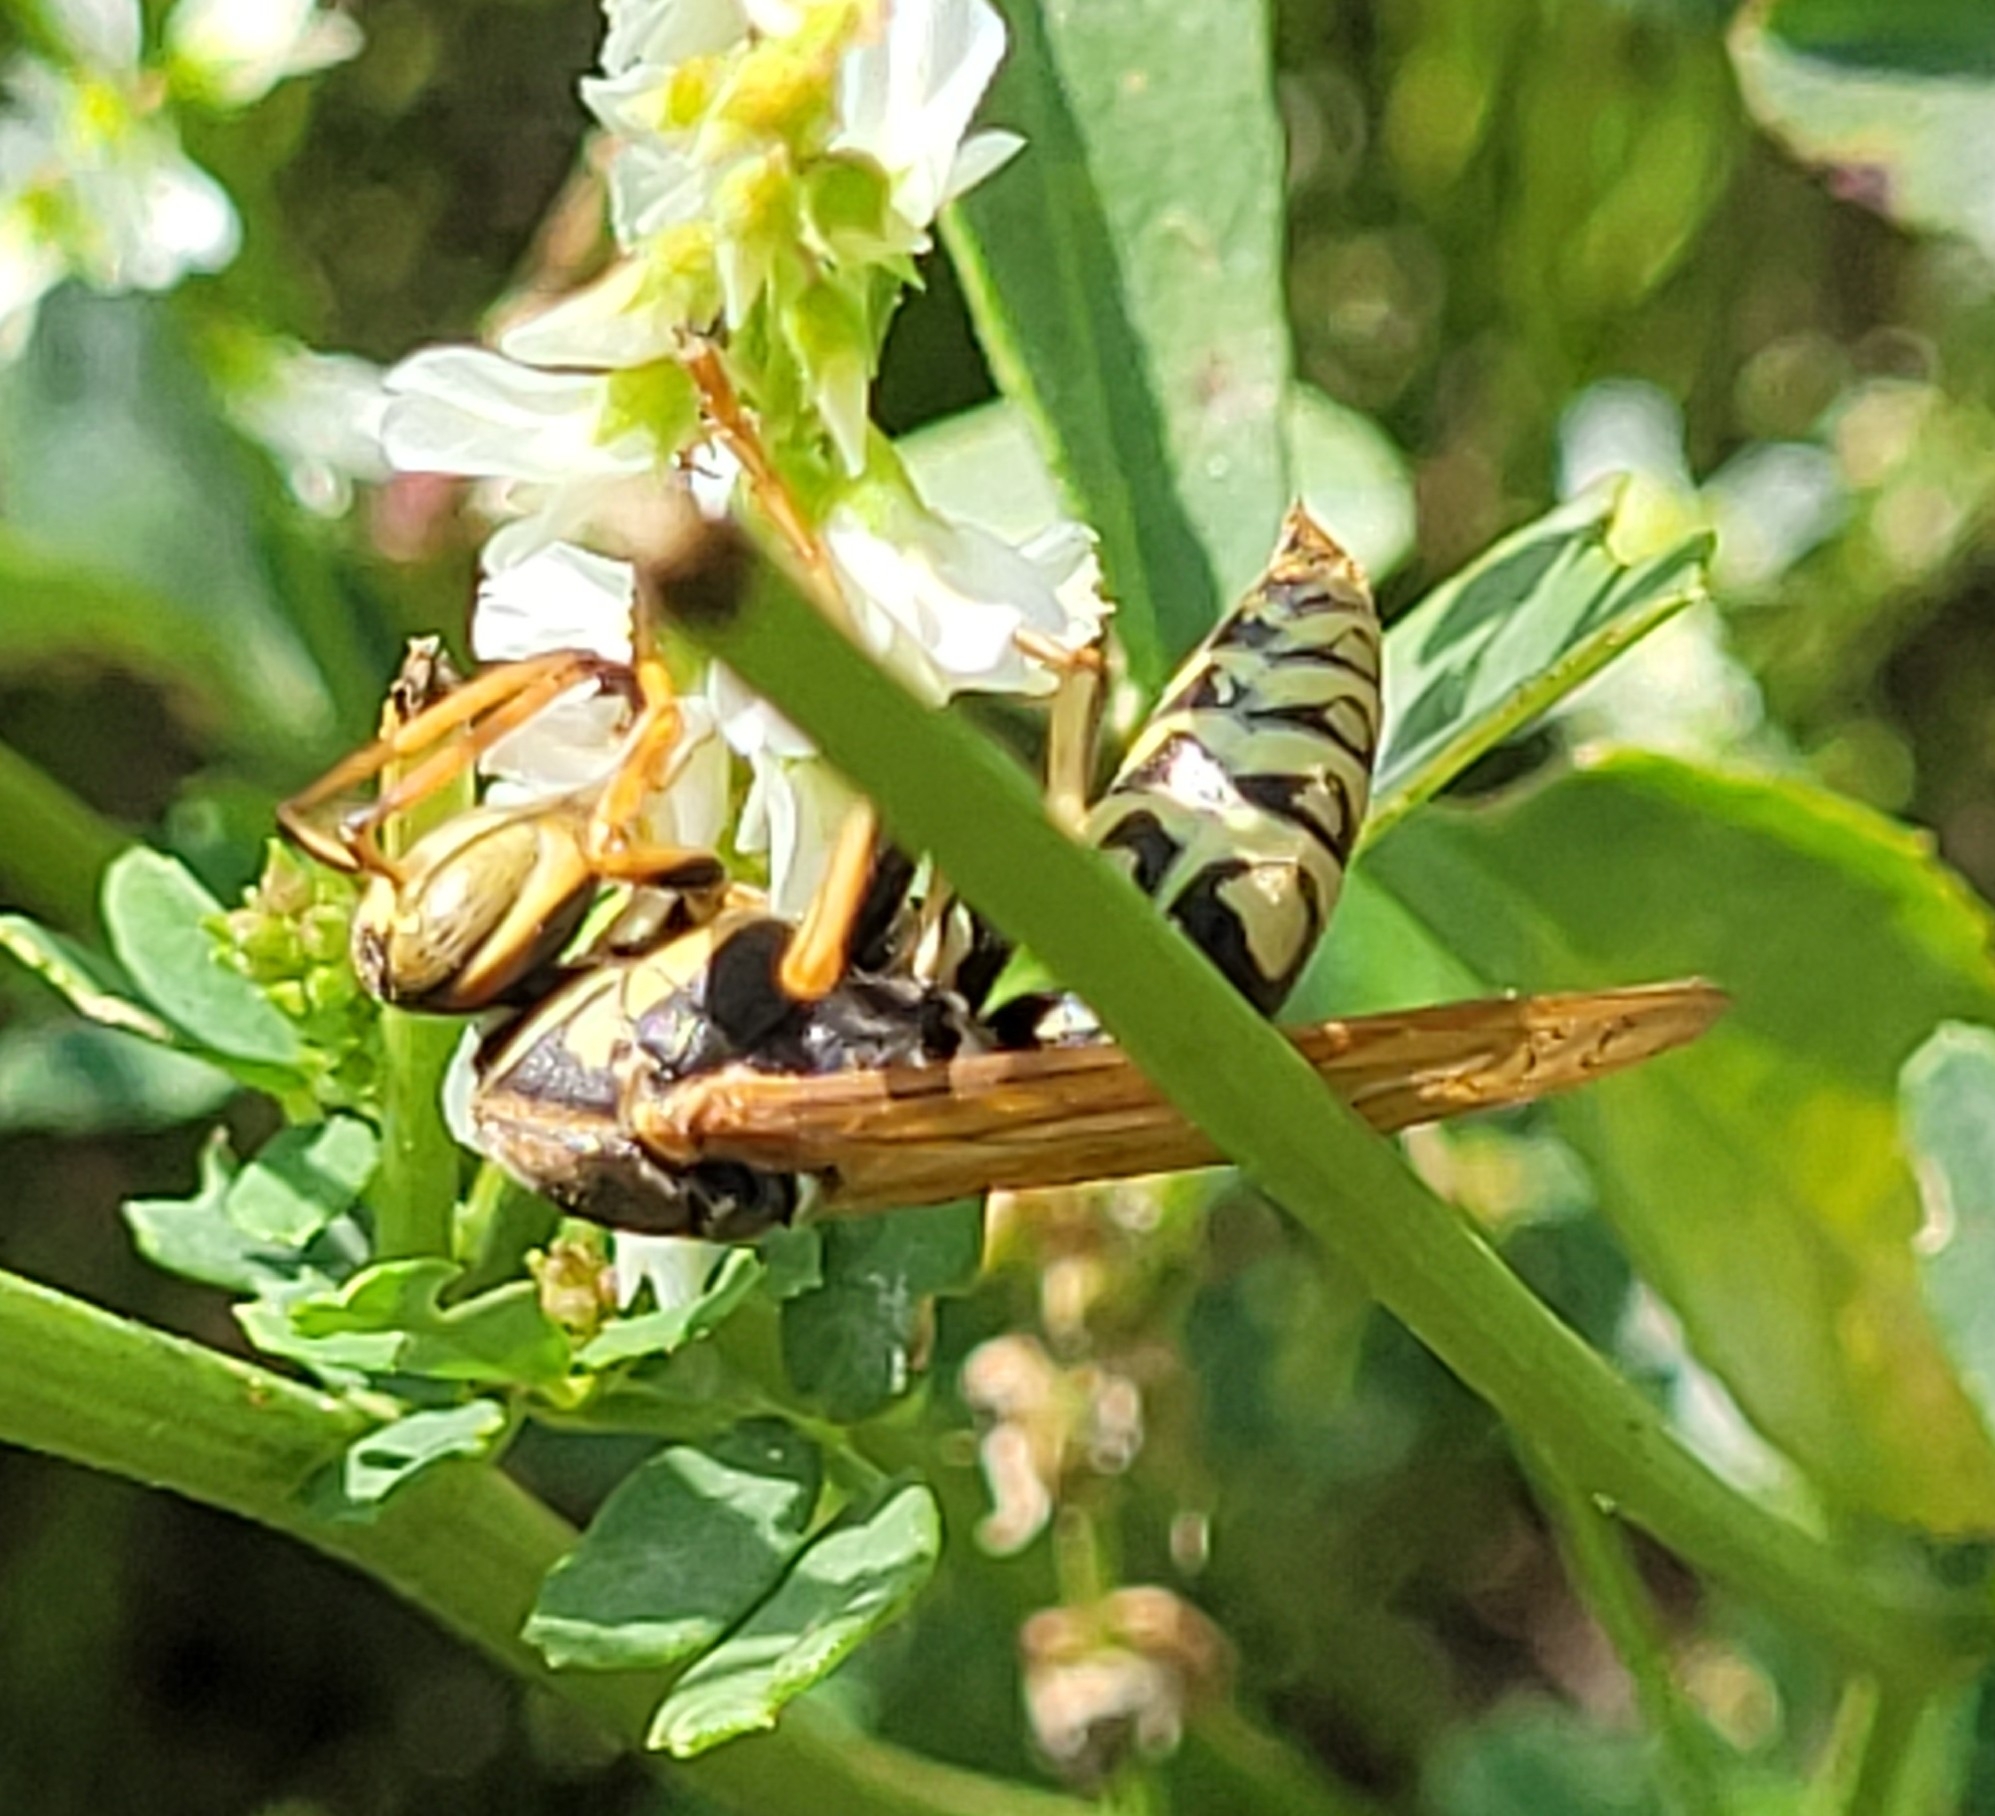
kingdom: Animalia
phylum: Arthropoda
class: Insecta
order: Hymenoptera
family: Eumenidae
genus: Polistes
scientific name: Polistes aurifer
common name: Paper wasp
